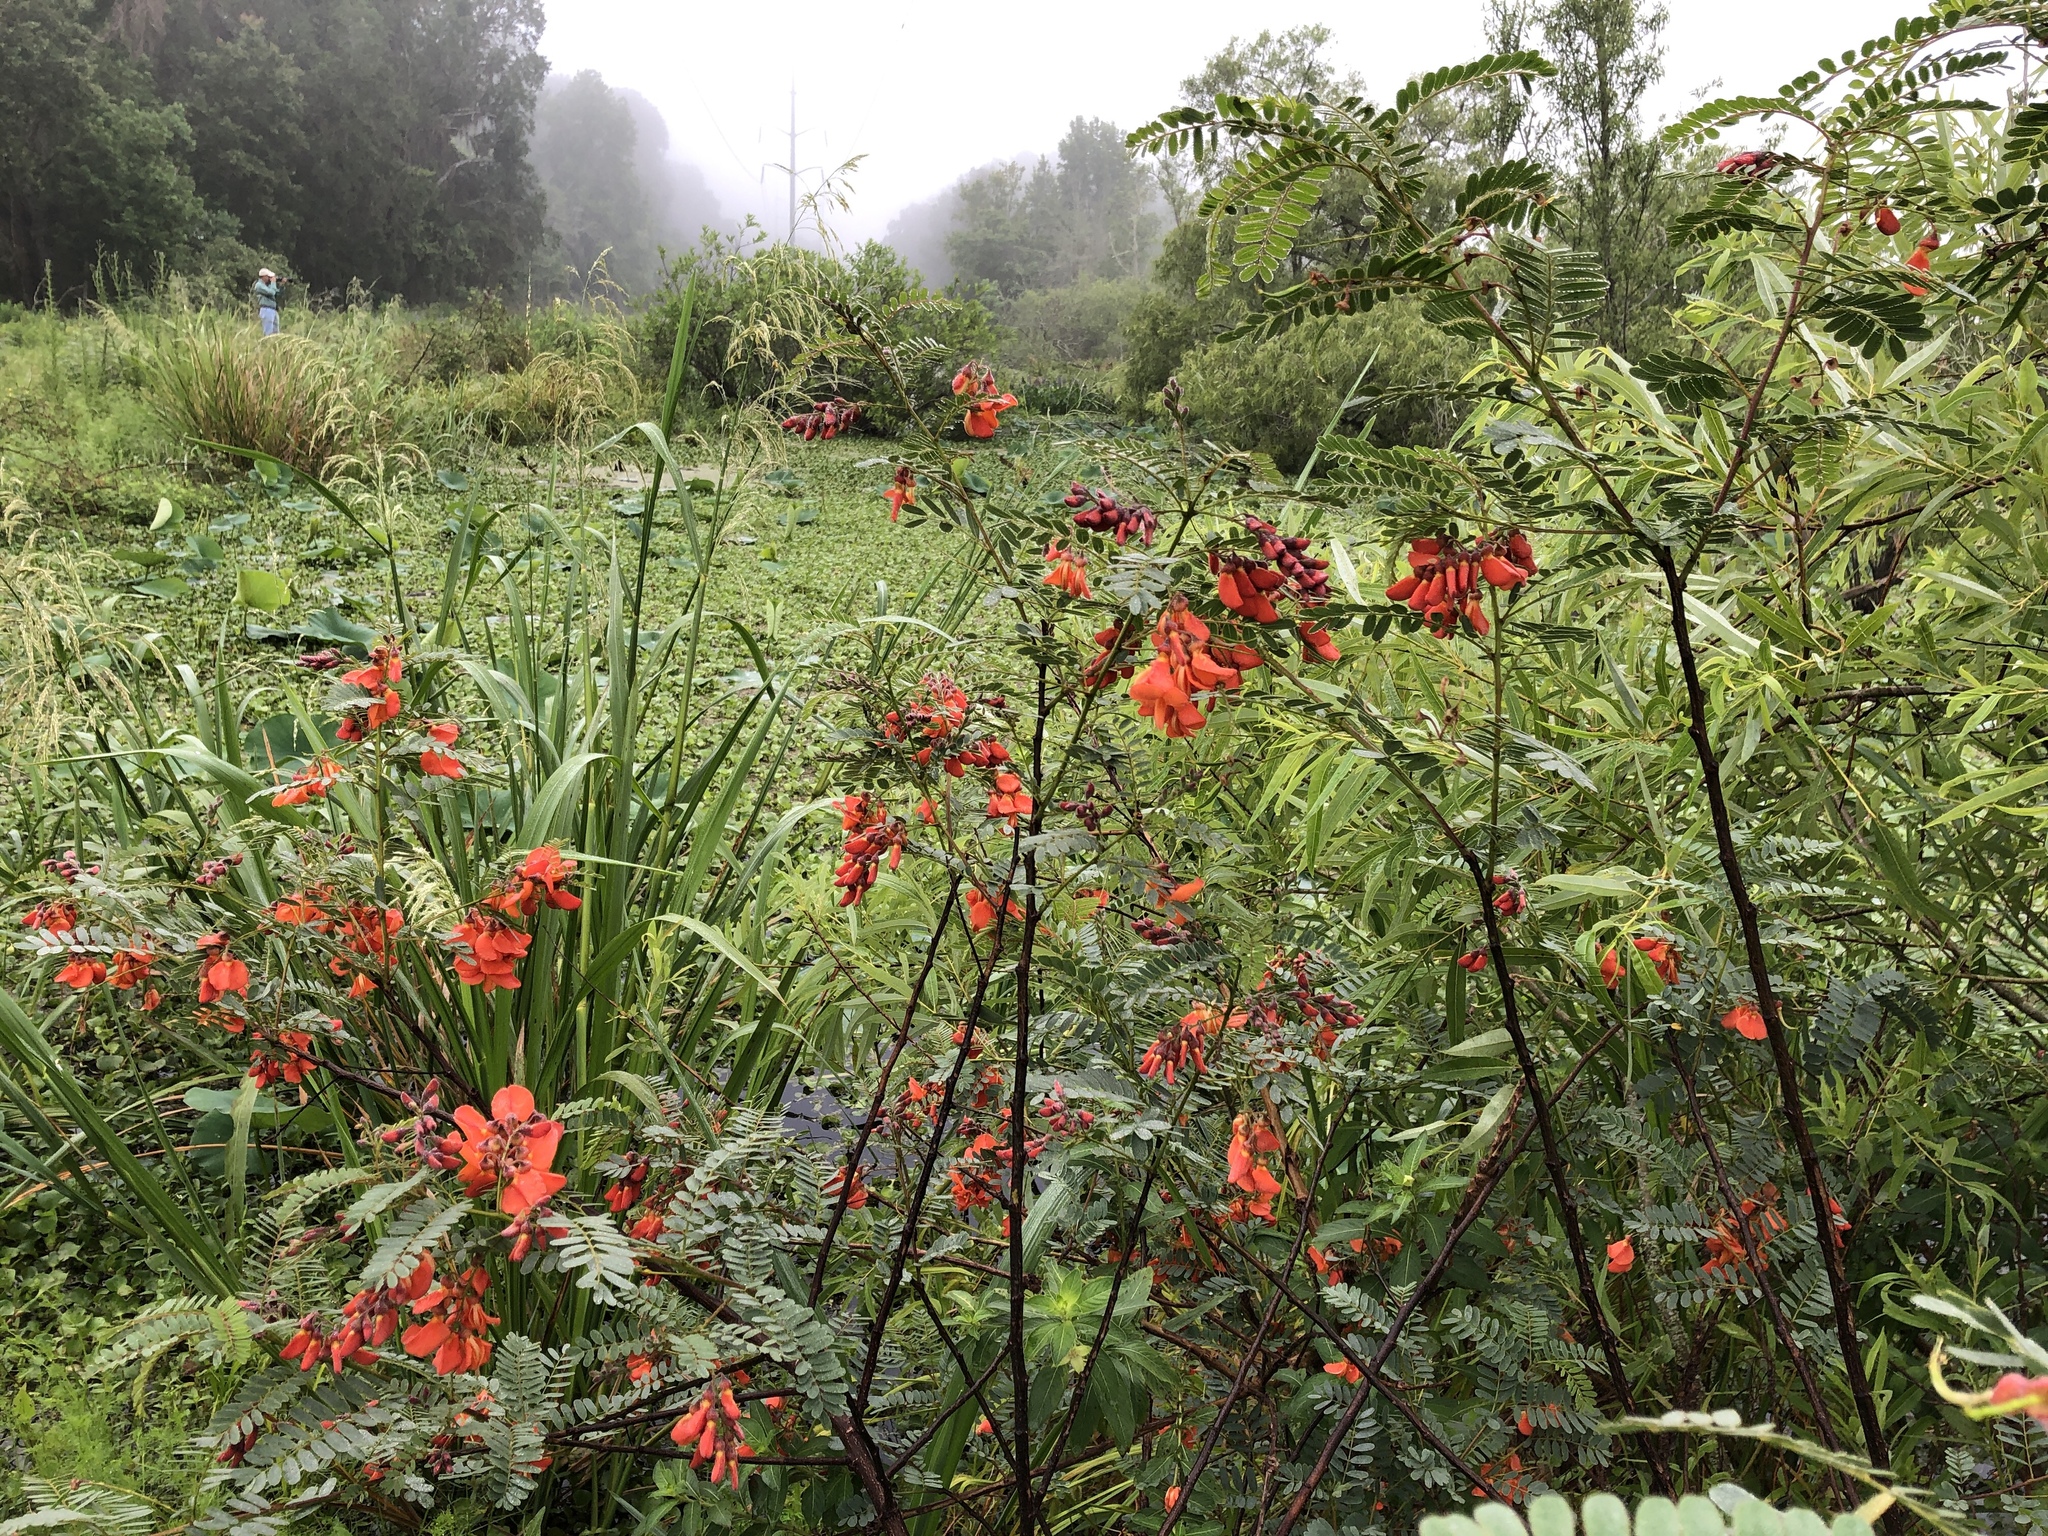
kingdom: Plantae
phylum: Tracheophyta
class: Magnoliopsida
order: Fabales
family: Fabaceae
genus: Sesbania
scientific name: Sesbania punicea
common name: Rattlebox
